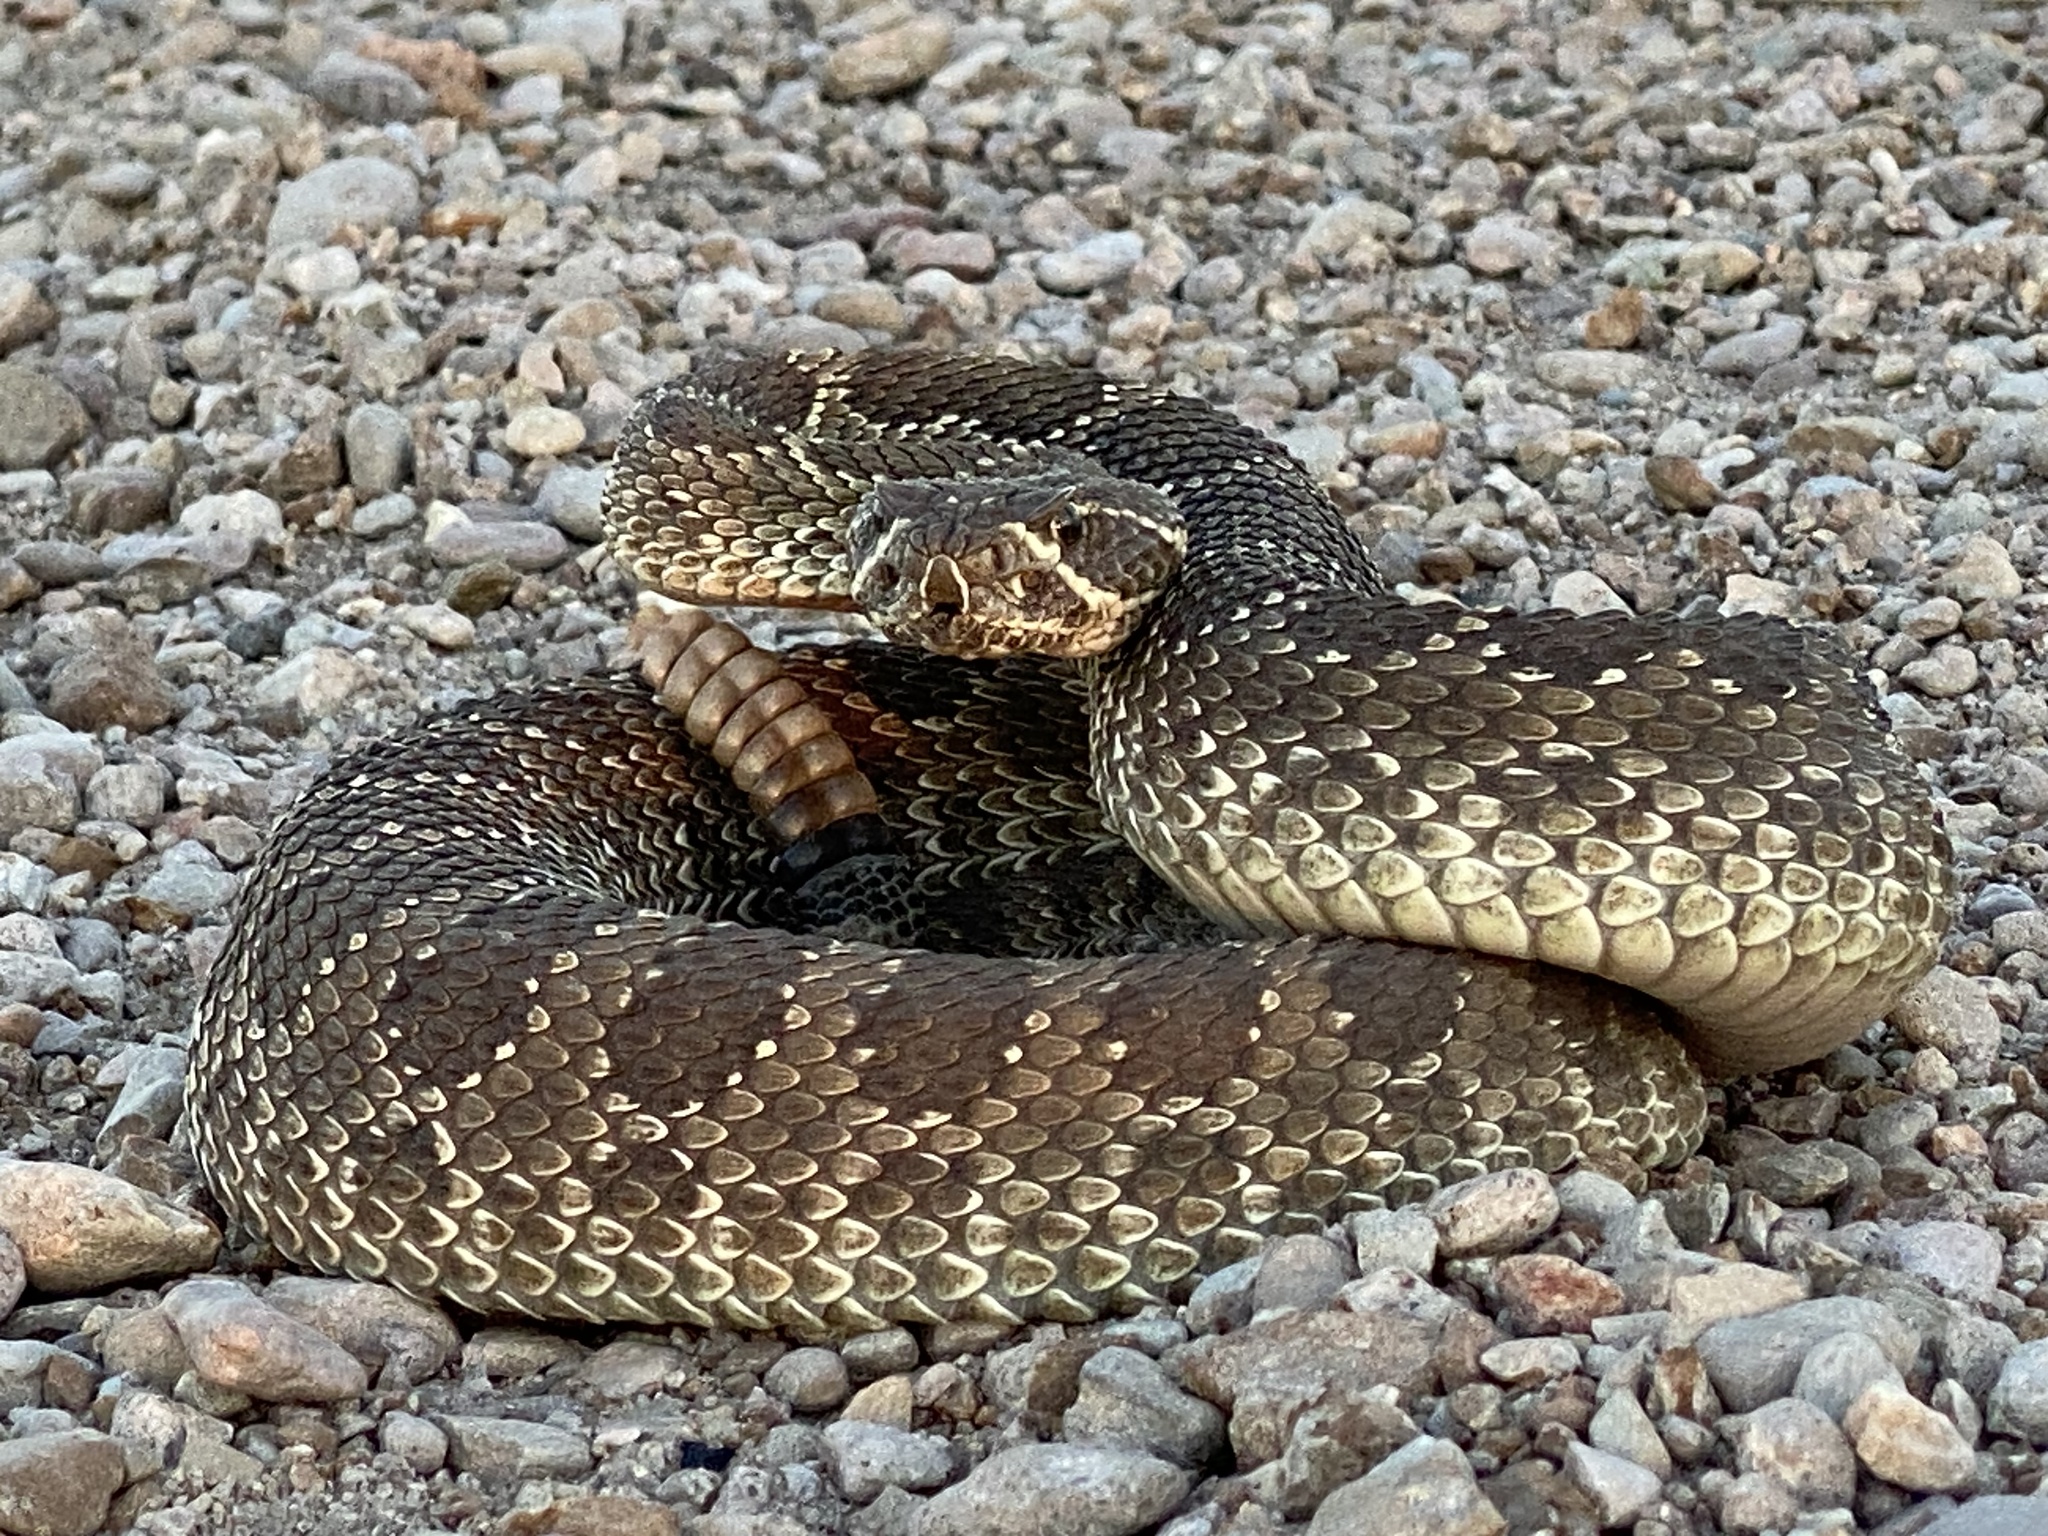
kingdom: Animalia
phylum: Chordata
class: Squamata
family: Viperidae
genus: Crotalus
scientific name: Crotalus viridis
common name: Prairie rattlesnake
